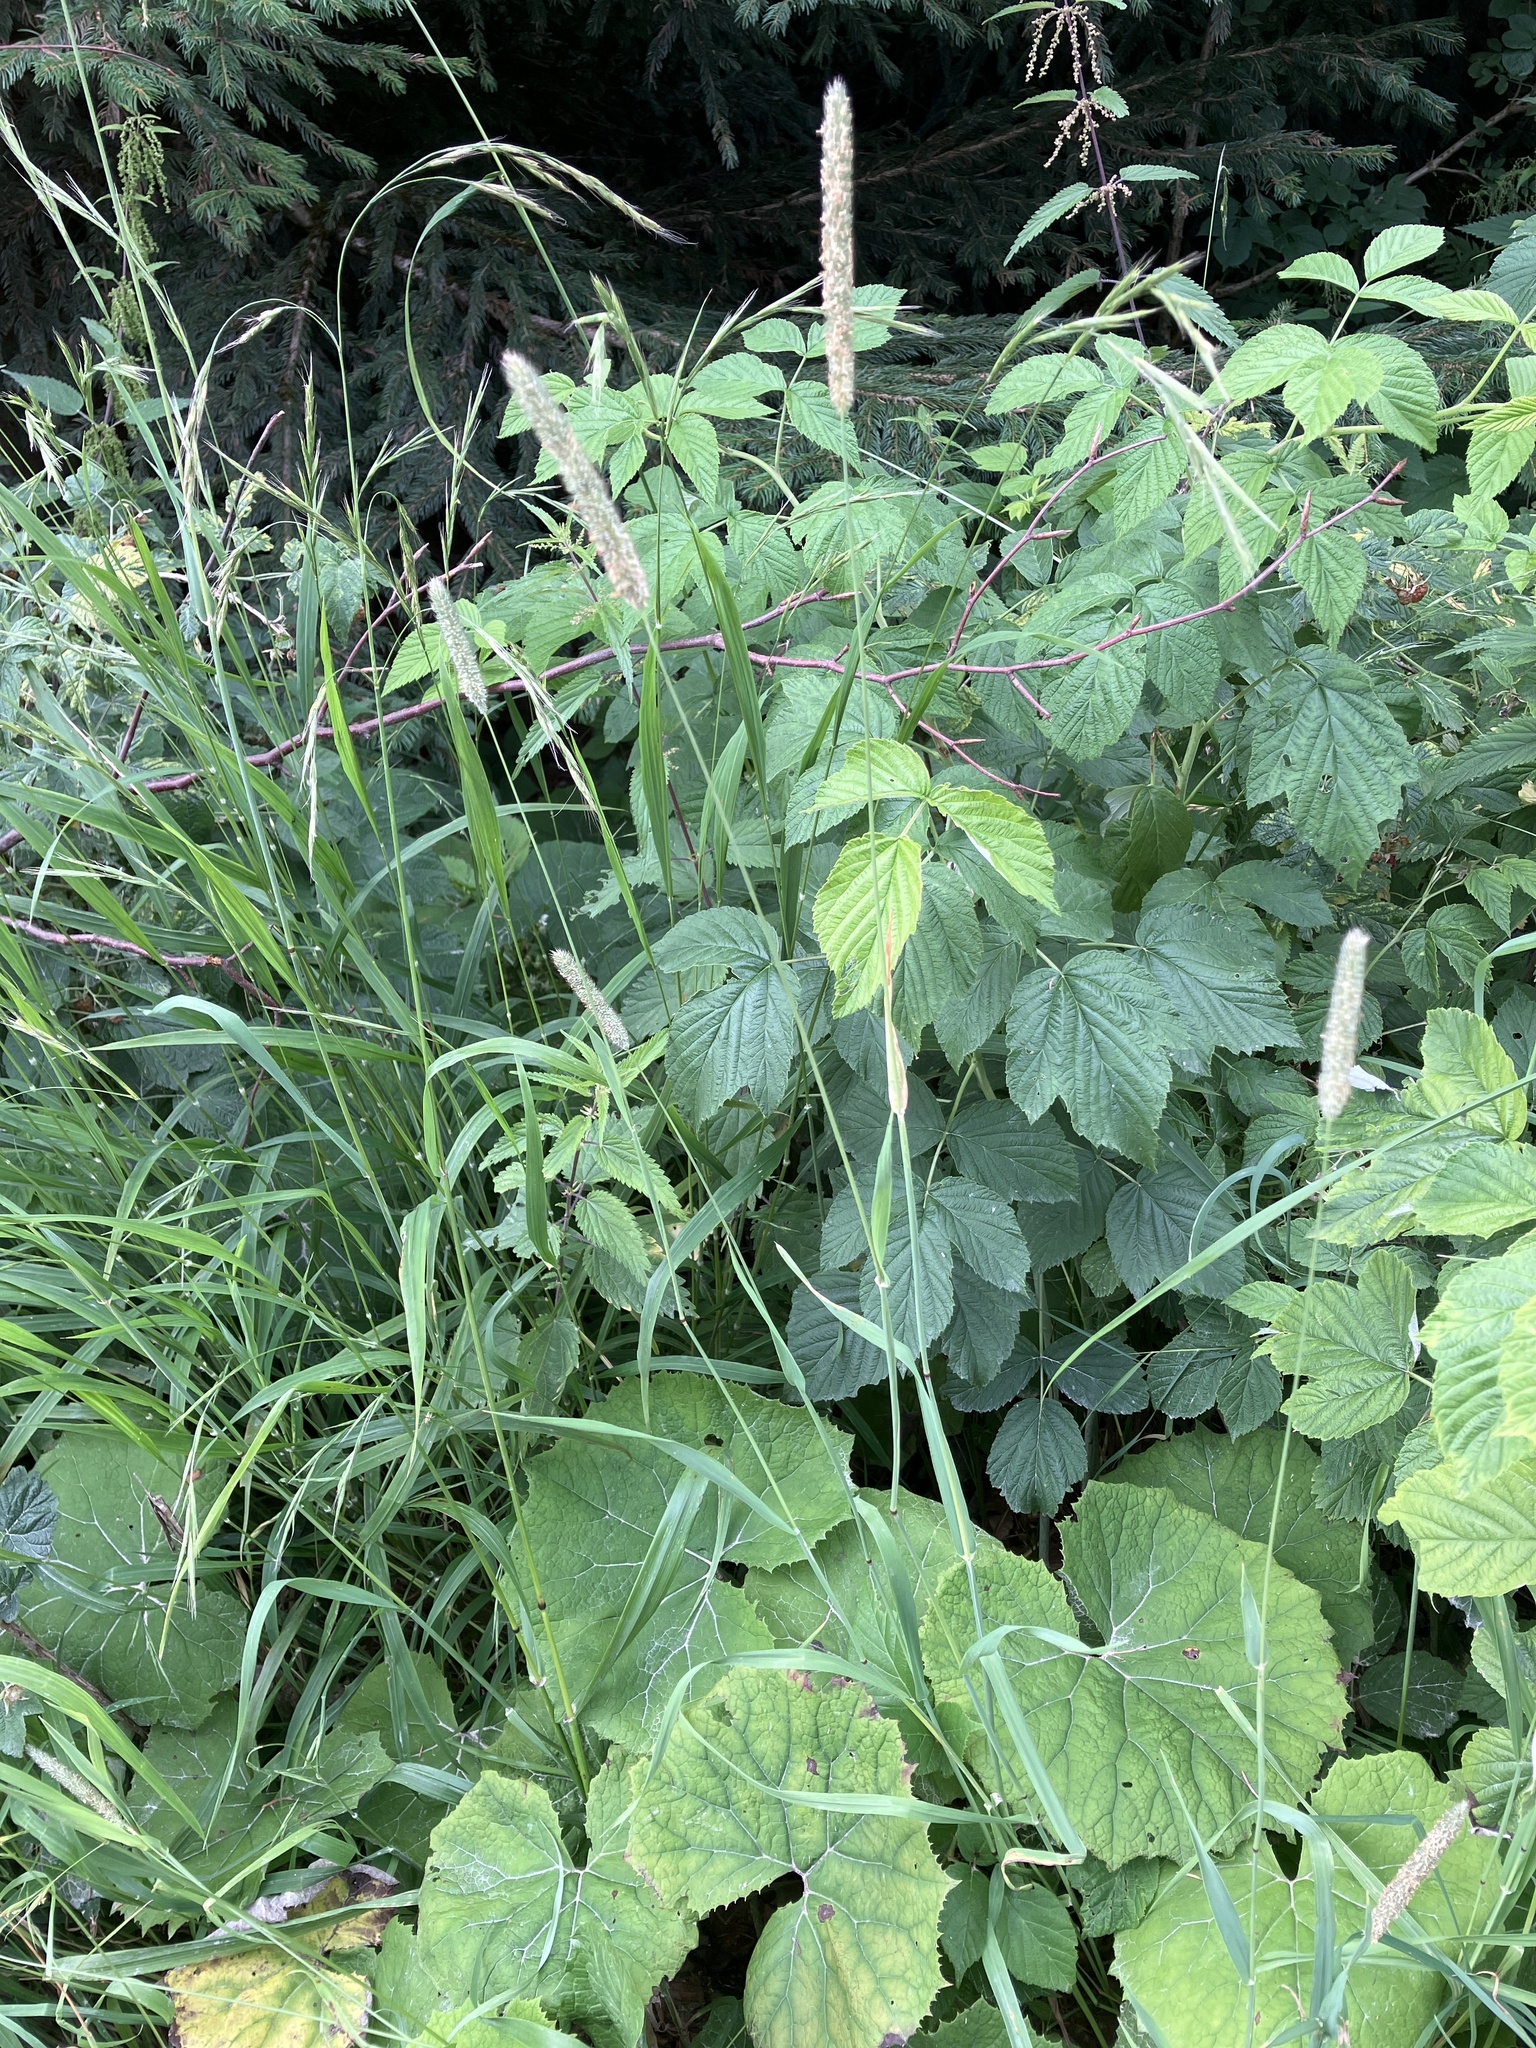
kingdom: Plantae
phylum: Tracheophyta
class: Liliopsida
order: Poales
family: Poaceae
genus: Phleum
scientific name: Phleum pratense
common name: Timothy grass
